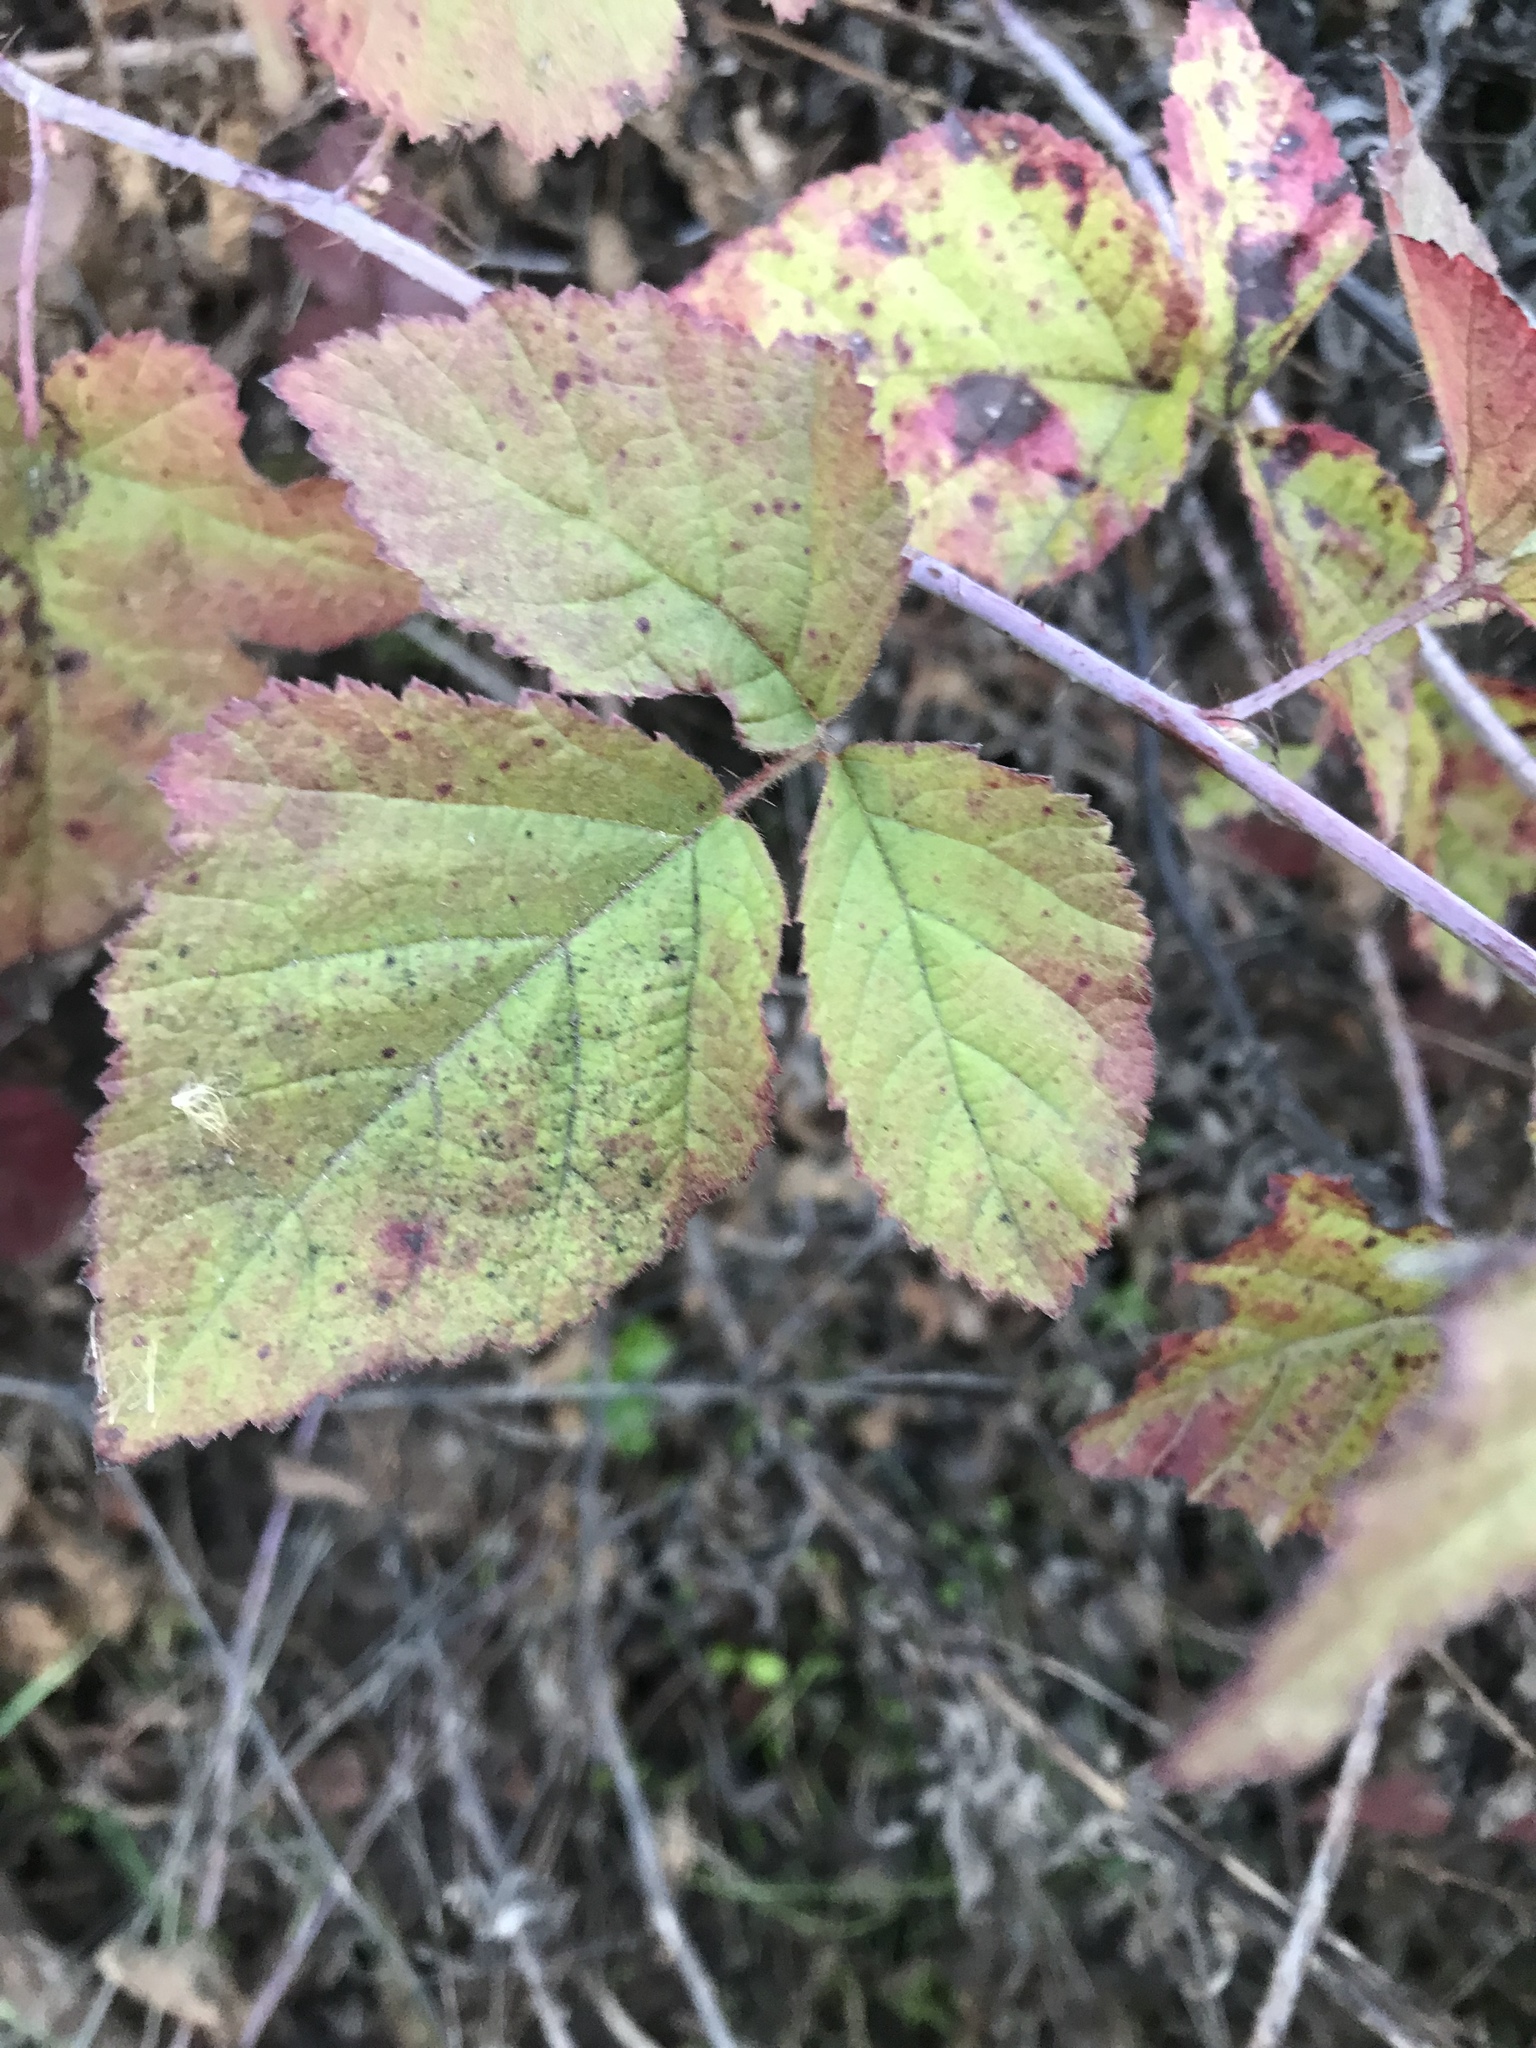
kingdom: Plantae
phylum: Tracheophyta
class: Magnoliopsida
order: Rosales
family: Rosaceae
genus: Rubus
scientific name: Rubus ursinus
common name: Pacific blackberry
